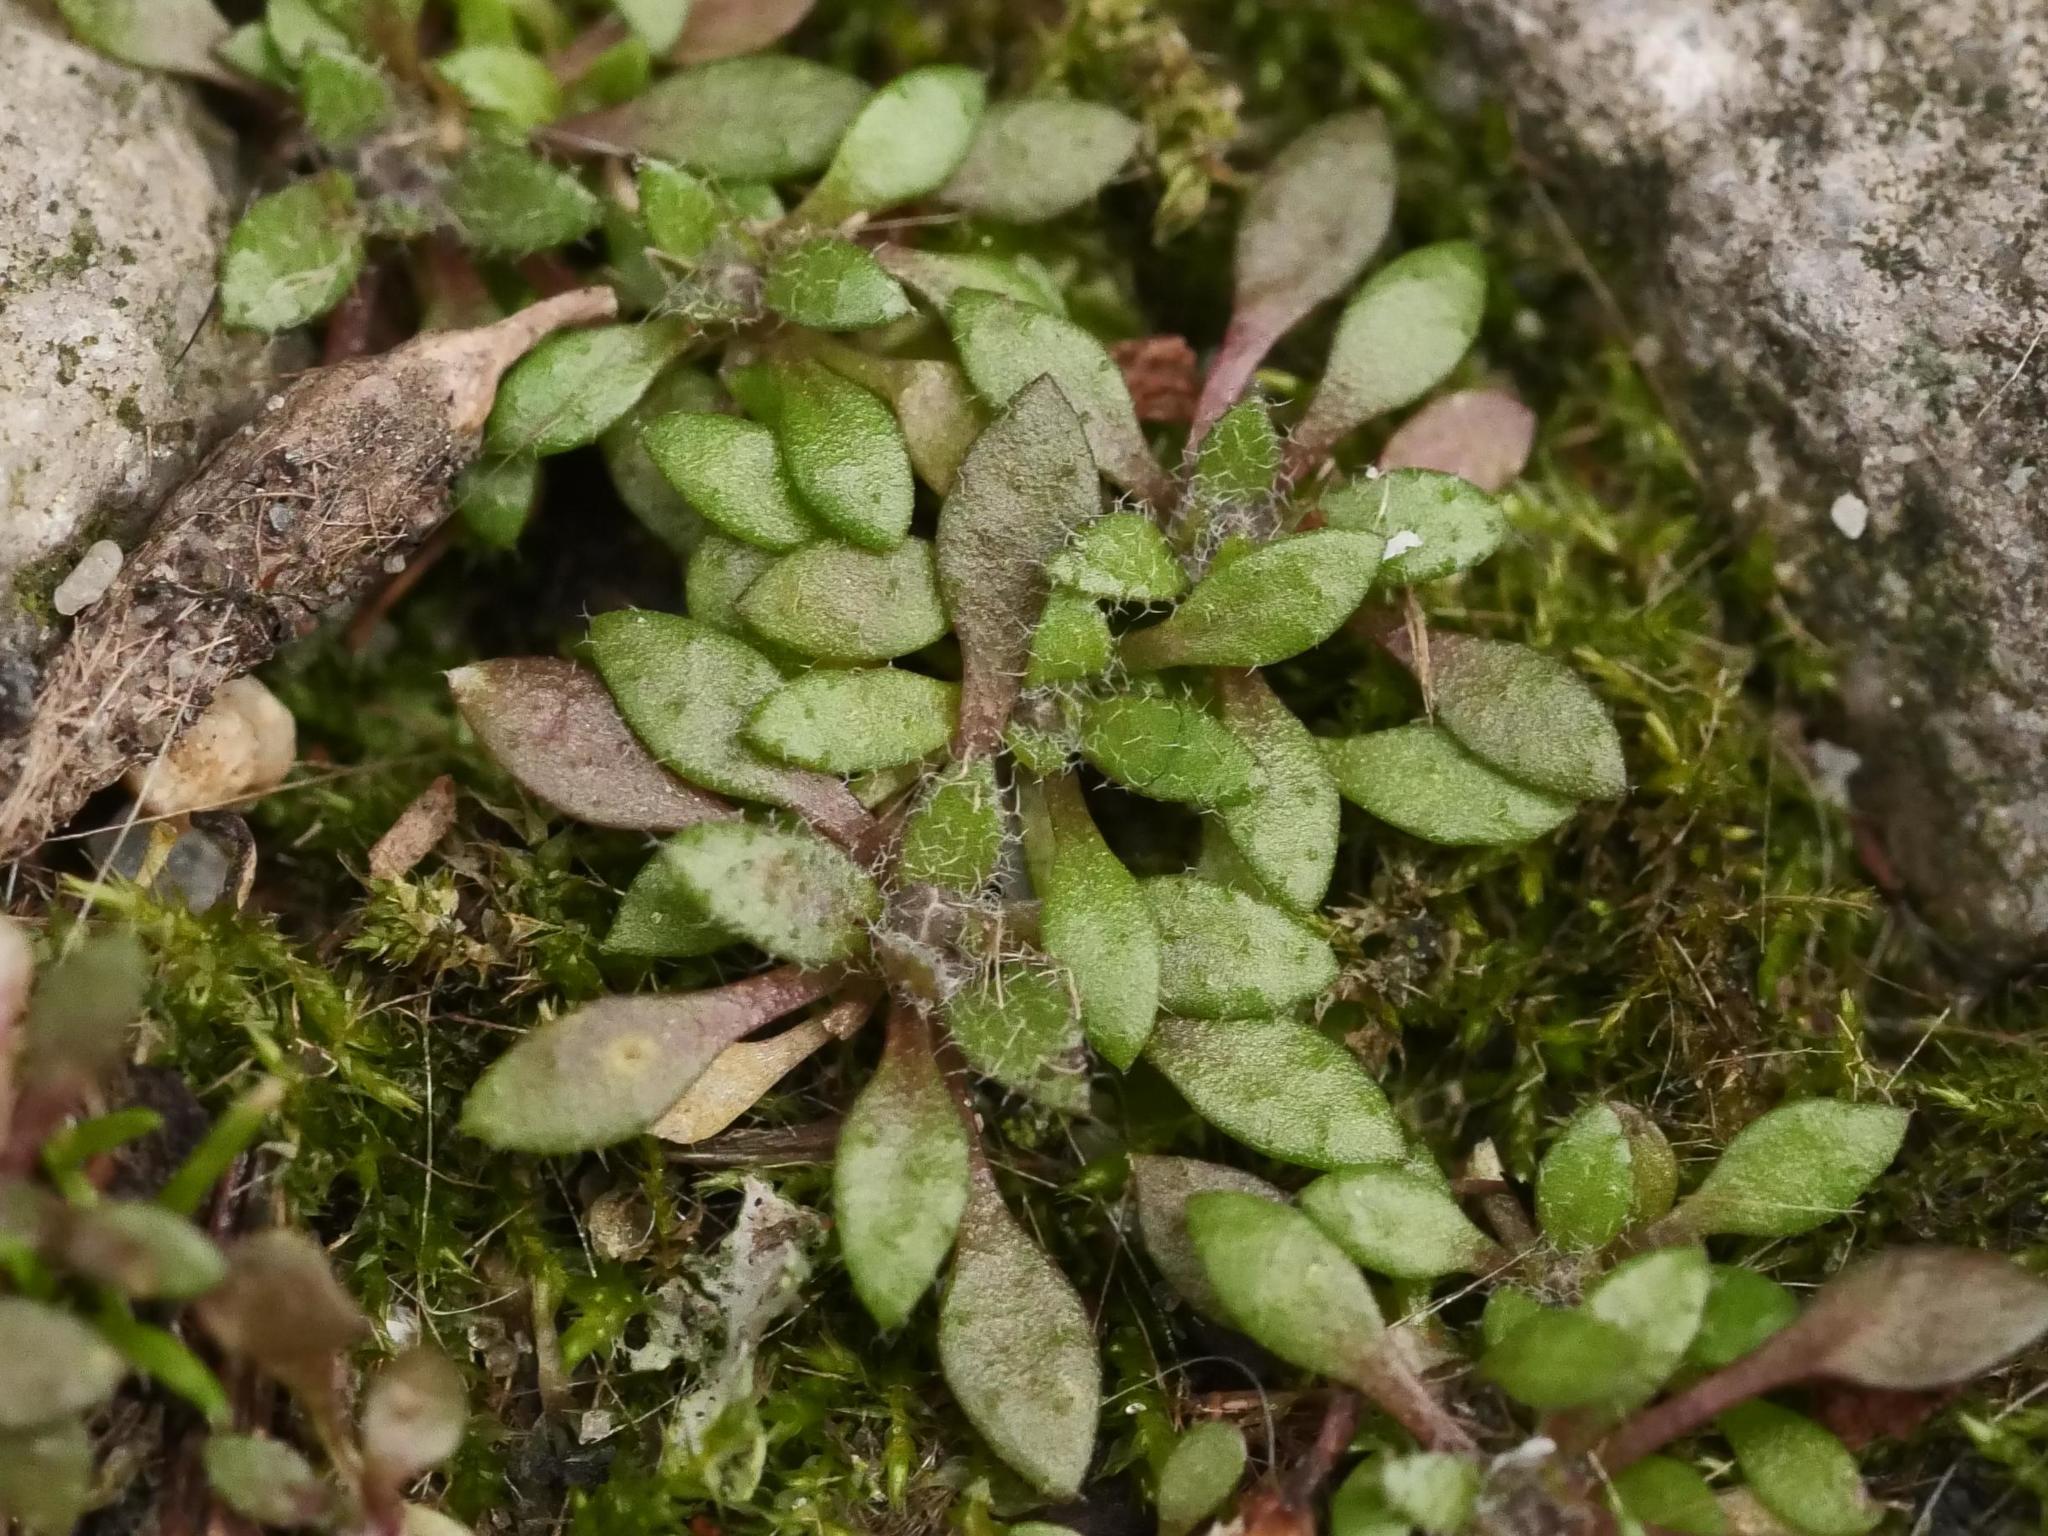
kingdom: Plantae
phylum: Tracheophyta
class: Magnoliopsida
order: Brassicales
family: Brassicaceae
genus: Draba
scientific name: Draba verna
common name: Spring draba
